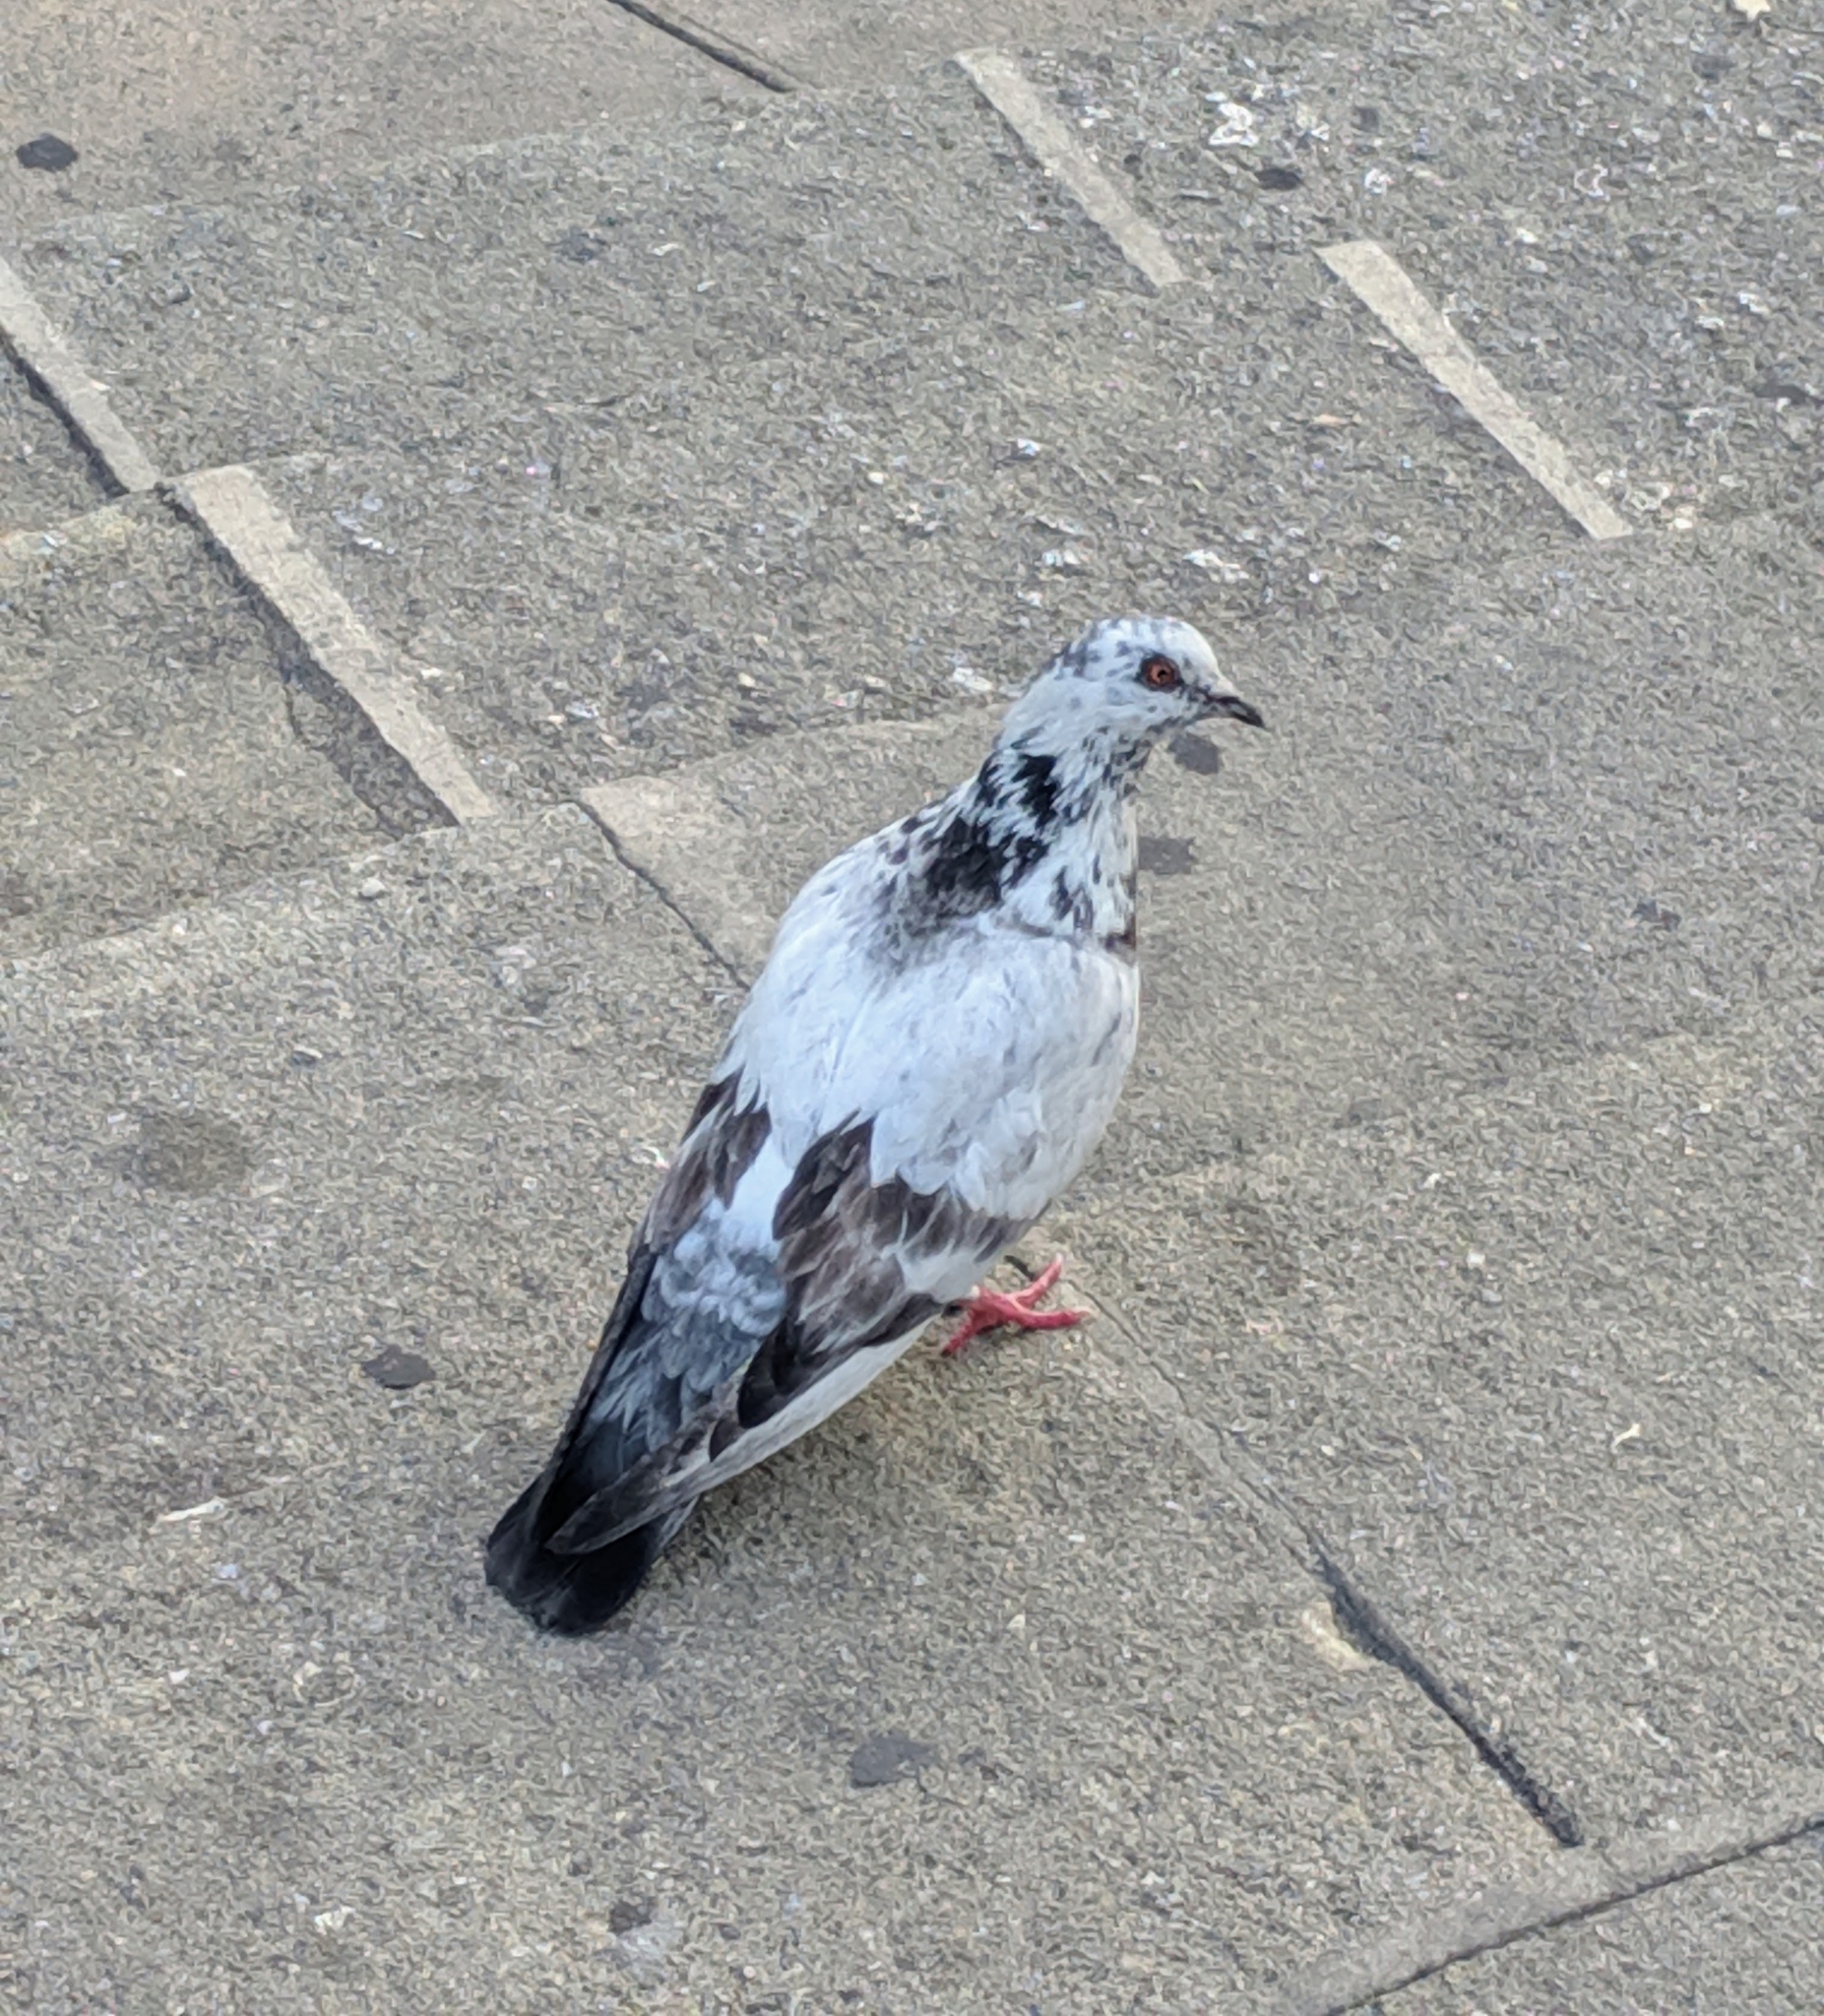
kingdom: Animalia
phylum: Chordata
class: Aves
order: Columbiformes
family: Columbidae
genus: Columba
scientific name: Columba livia
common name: Rock pigeon
